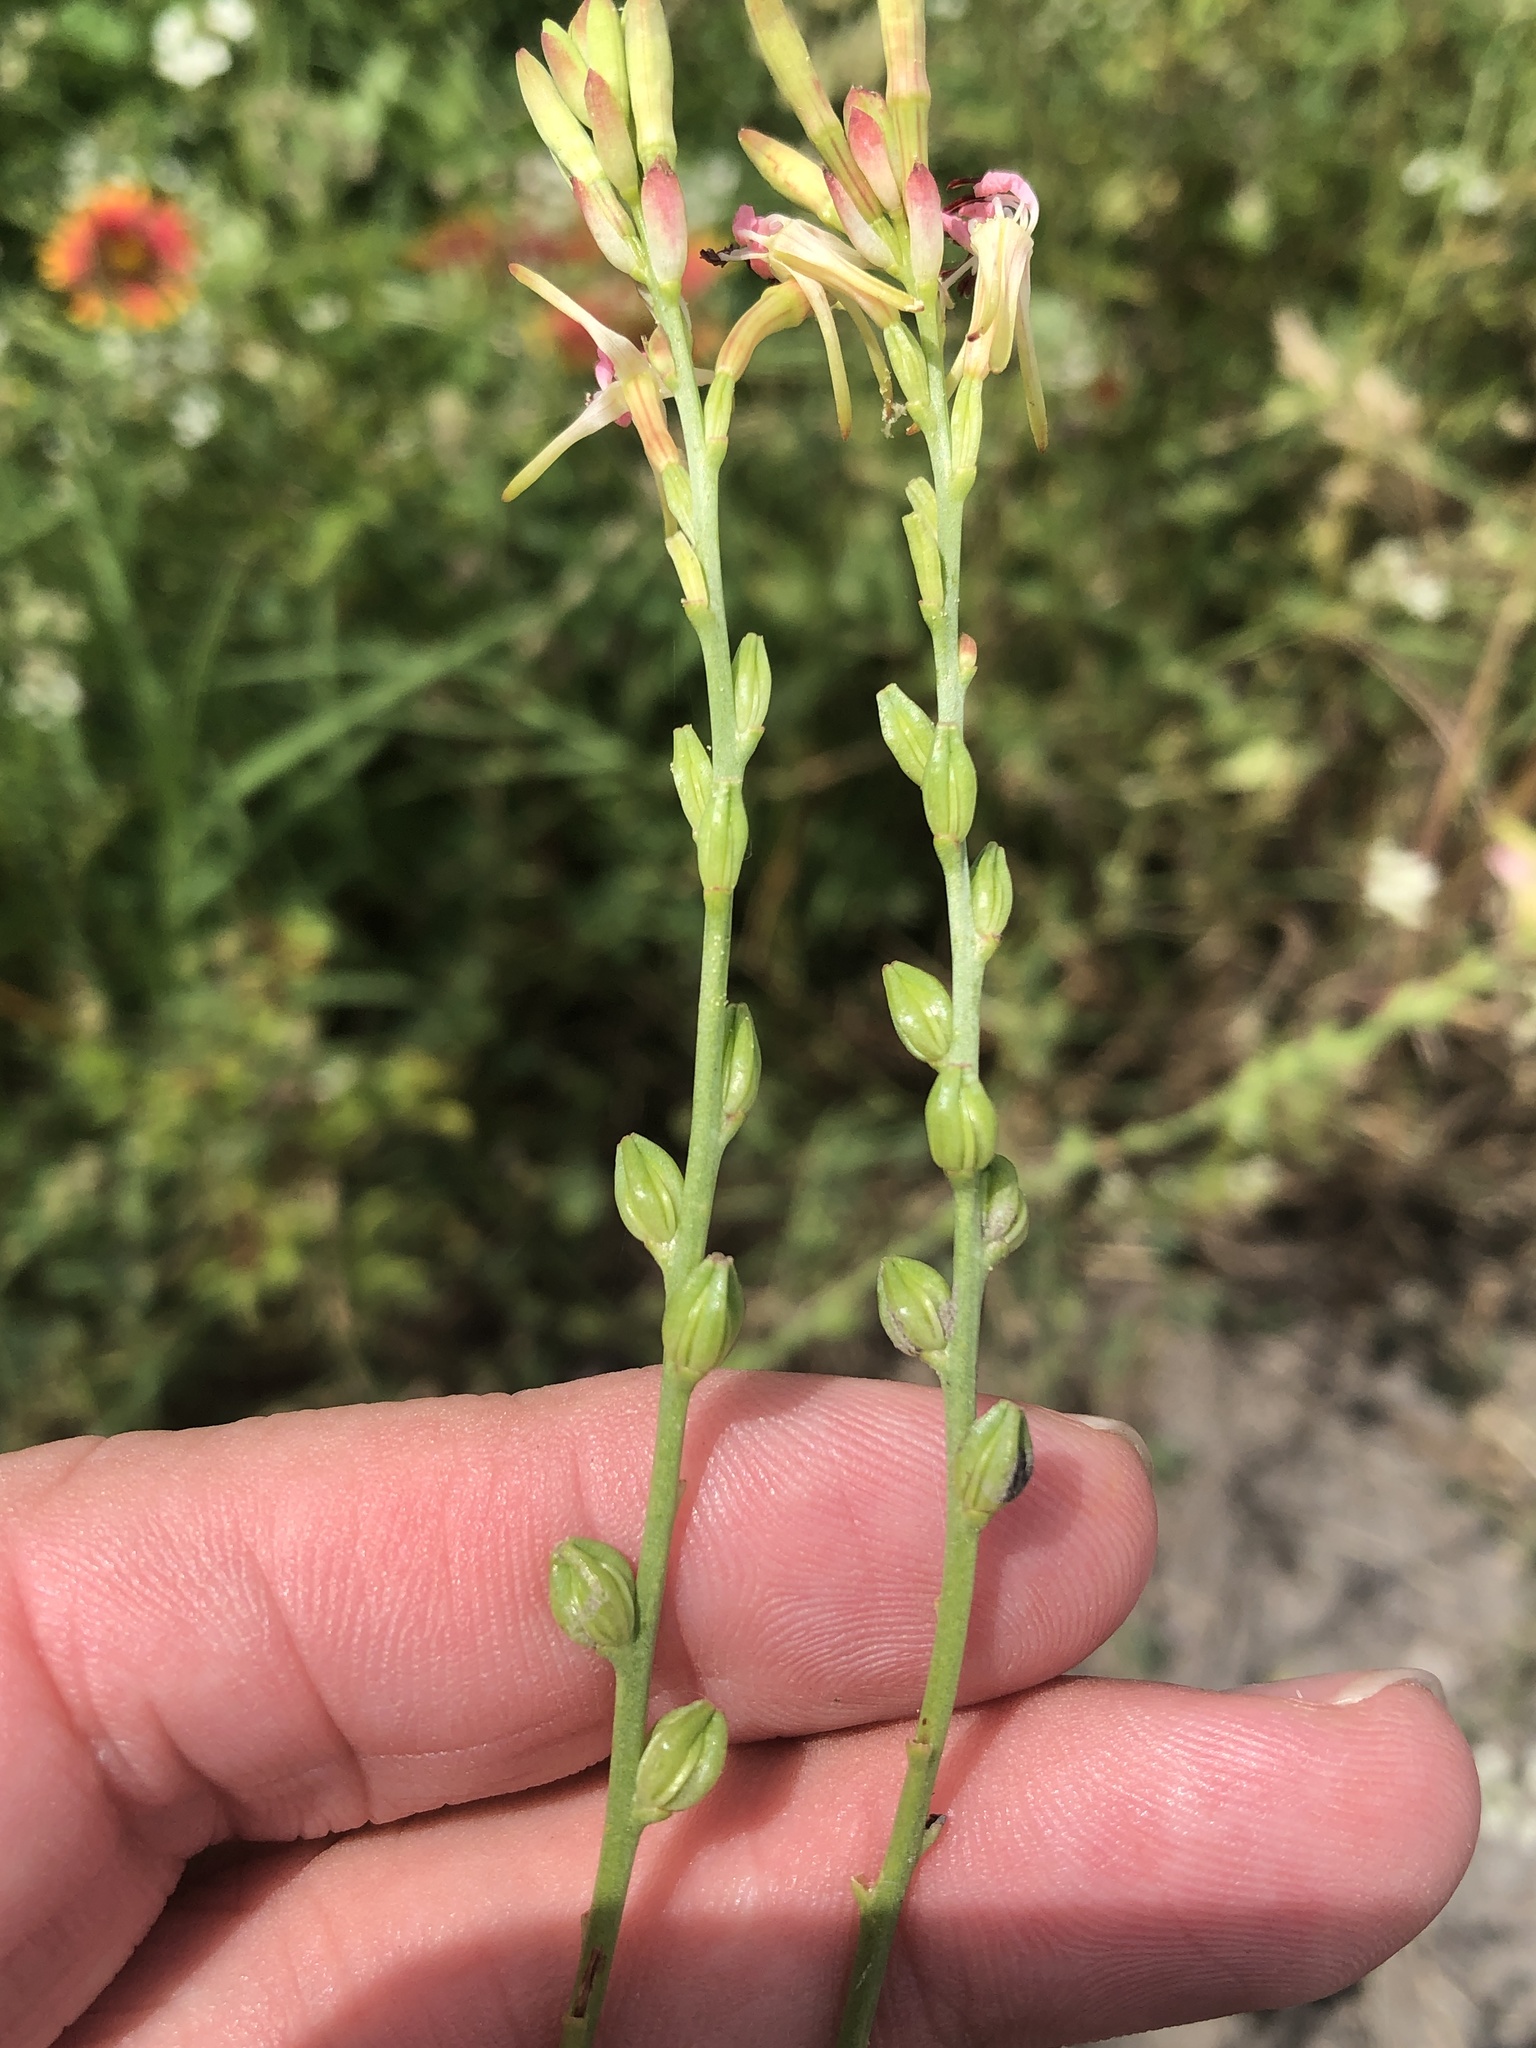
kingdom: Plantae
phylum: Tracheophyta
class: Magnoliopsida
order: Myrtales
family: Onagraceae
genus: Oenothera
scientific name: Oenothera suffulta
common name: Kisses
